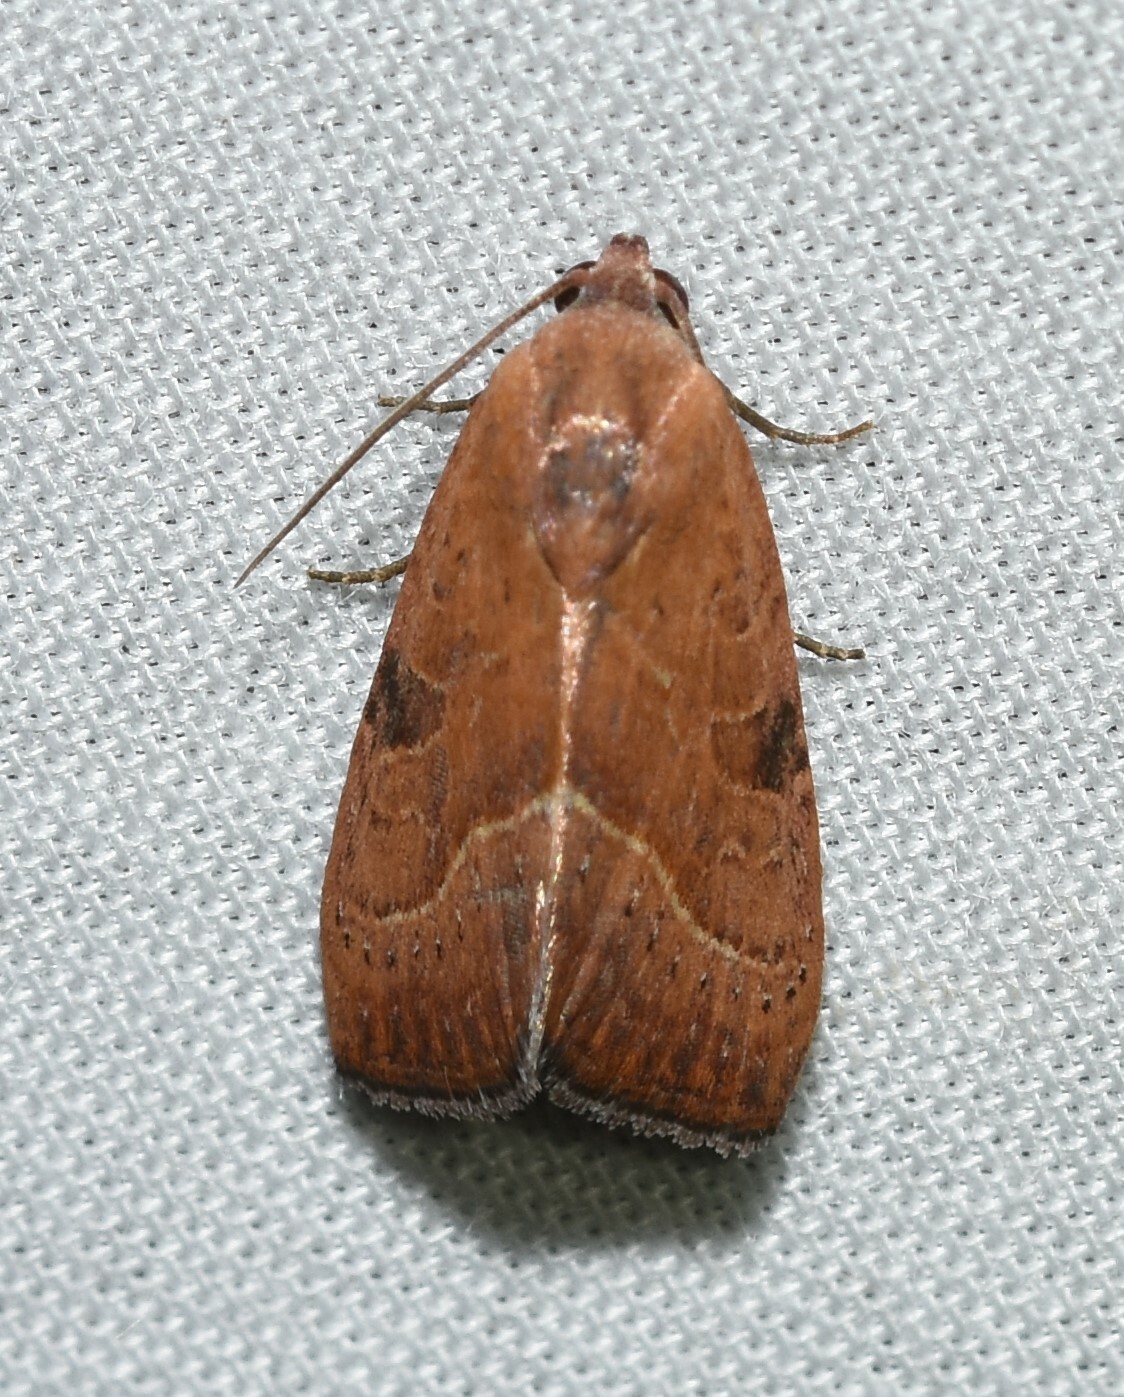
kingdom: Animalia
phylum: Arthropoda
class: Insecta
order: Lepidoptera
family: Noctuidae
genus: Galgula
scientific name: Galgula partita
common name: Wedgeling
